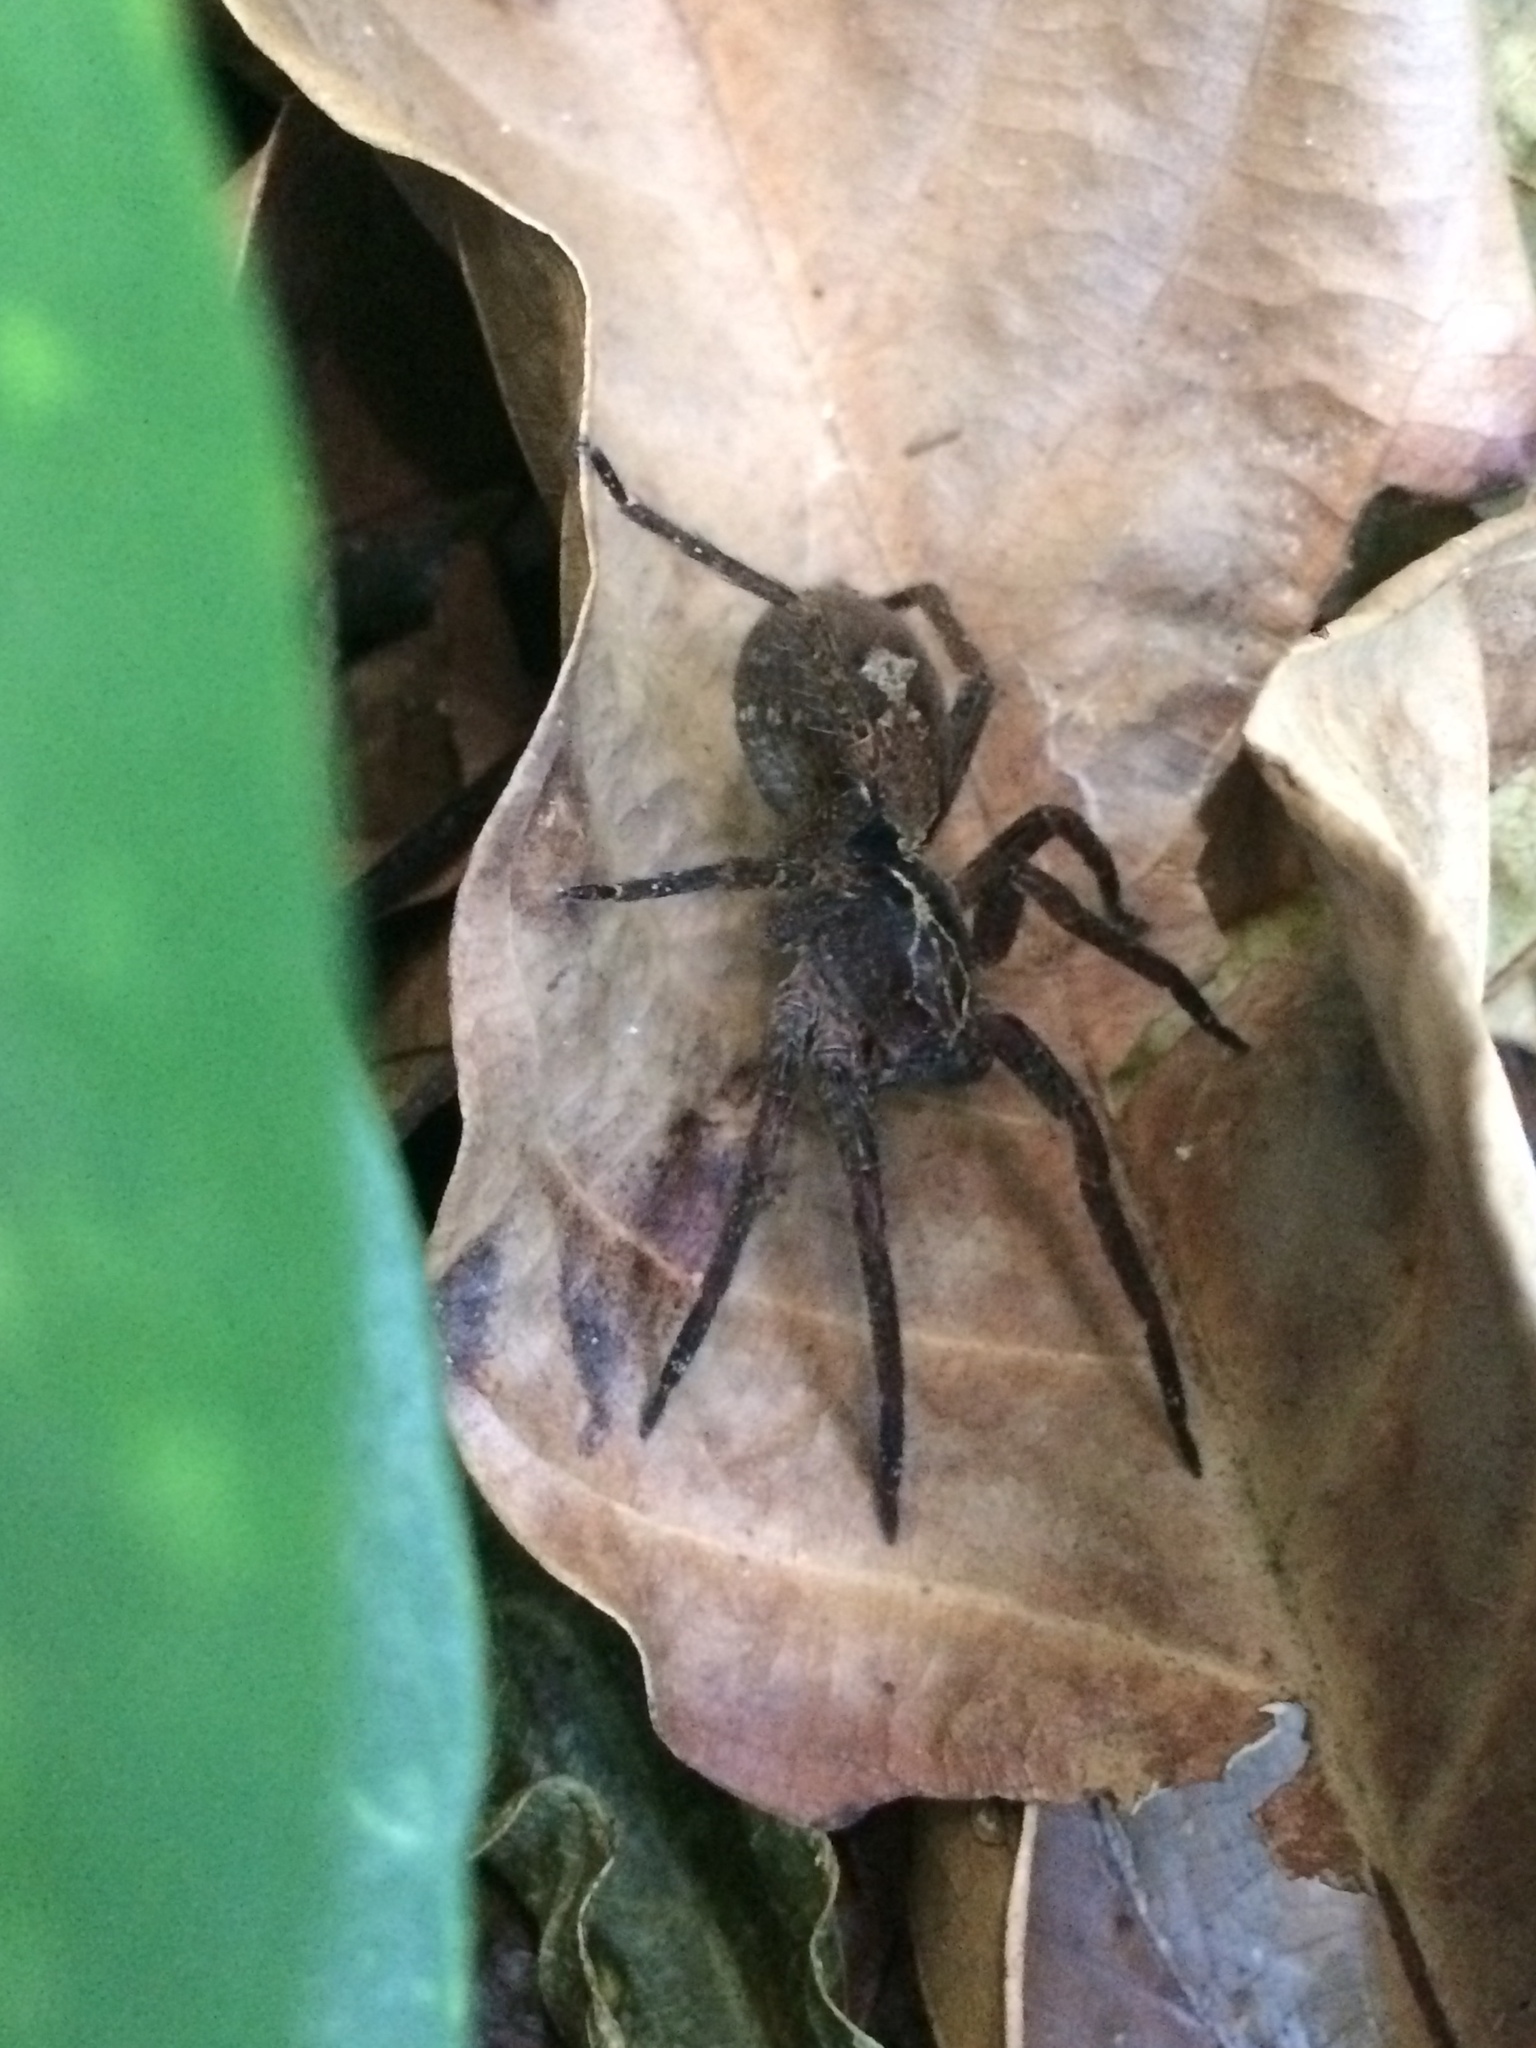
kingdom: Animalia
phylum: Arthropoda
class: Arachnida
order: Araneae
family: Ctenidae
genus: Ctenus
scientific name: Ctenus ornatus
